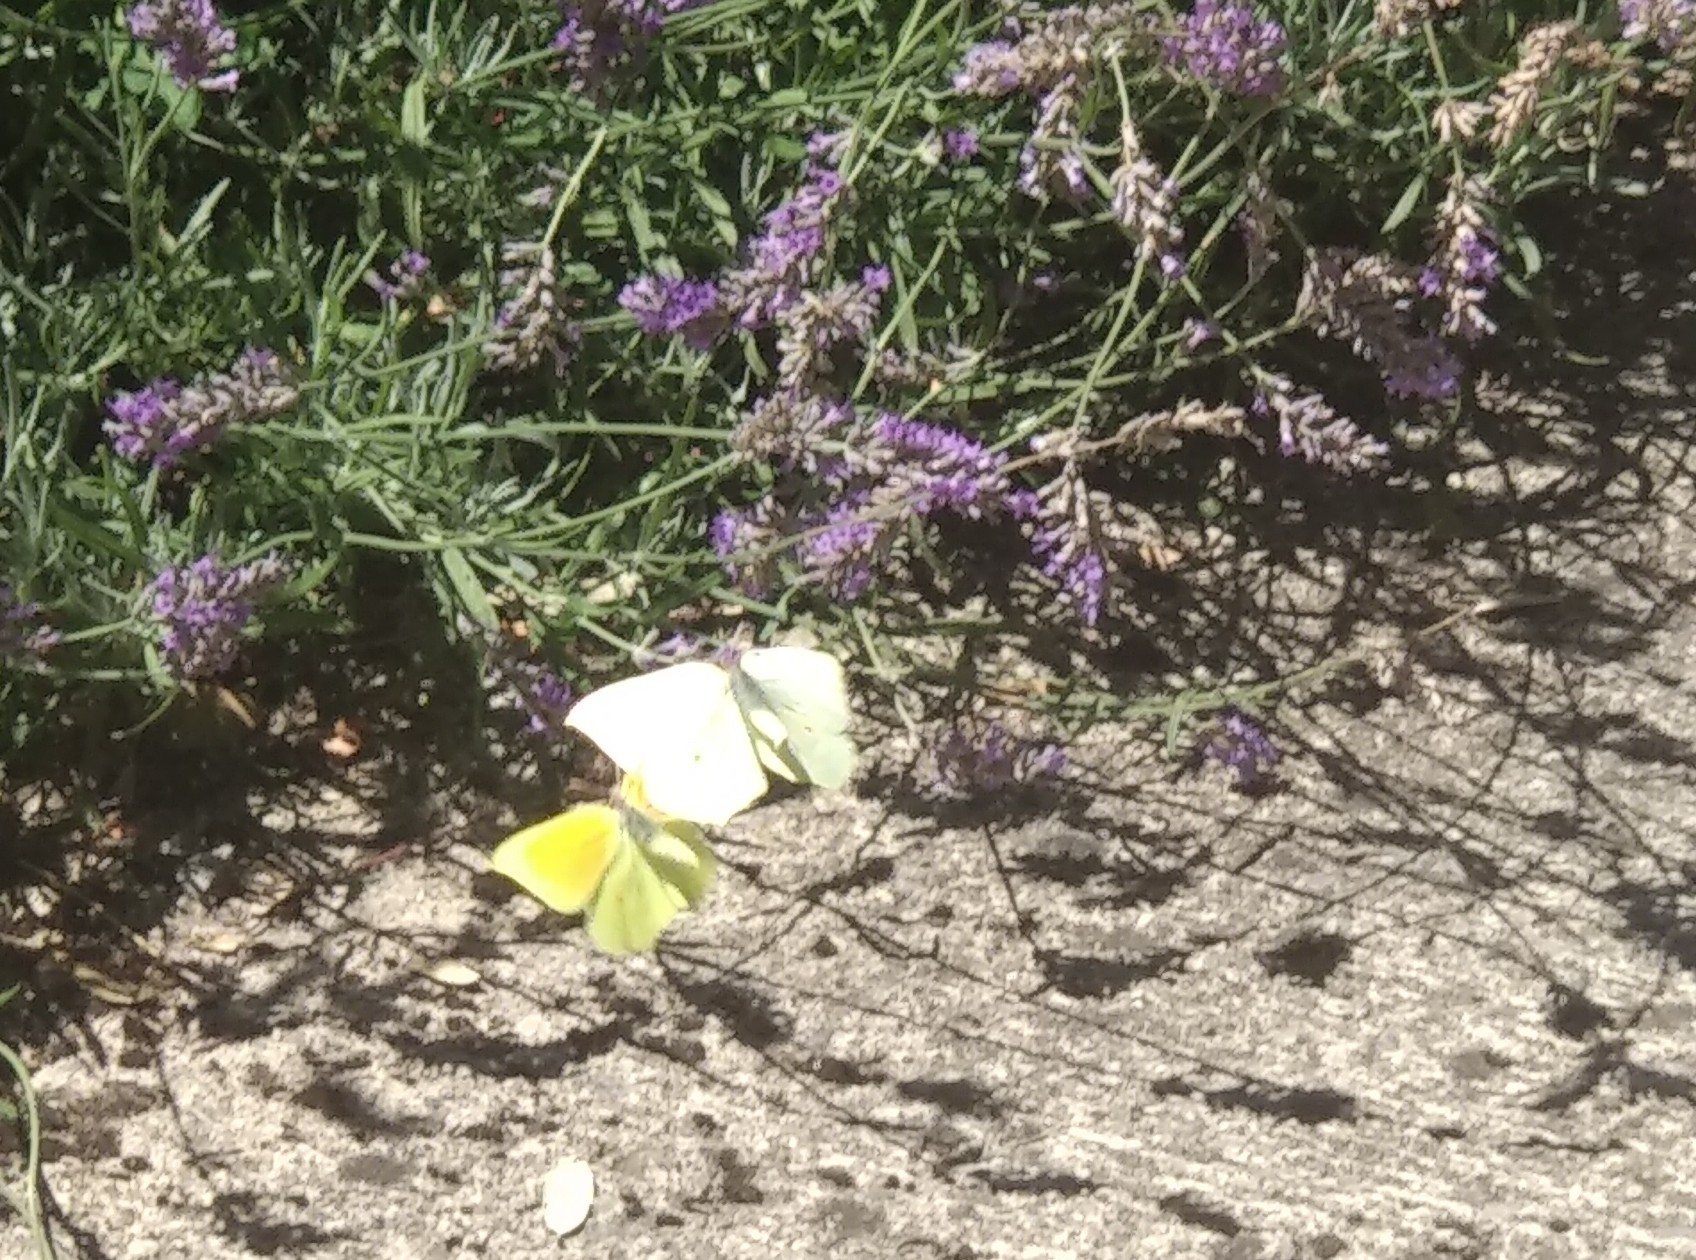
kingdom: Animalia
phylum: Arthropoda
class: Insecta
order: Lepidoptera
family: Pieridae
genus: Gonepteryx
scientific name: Gonepteryx cleopatra
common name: Cleopatra
